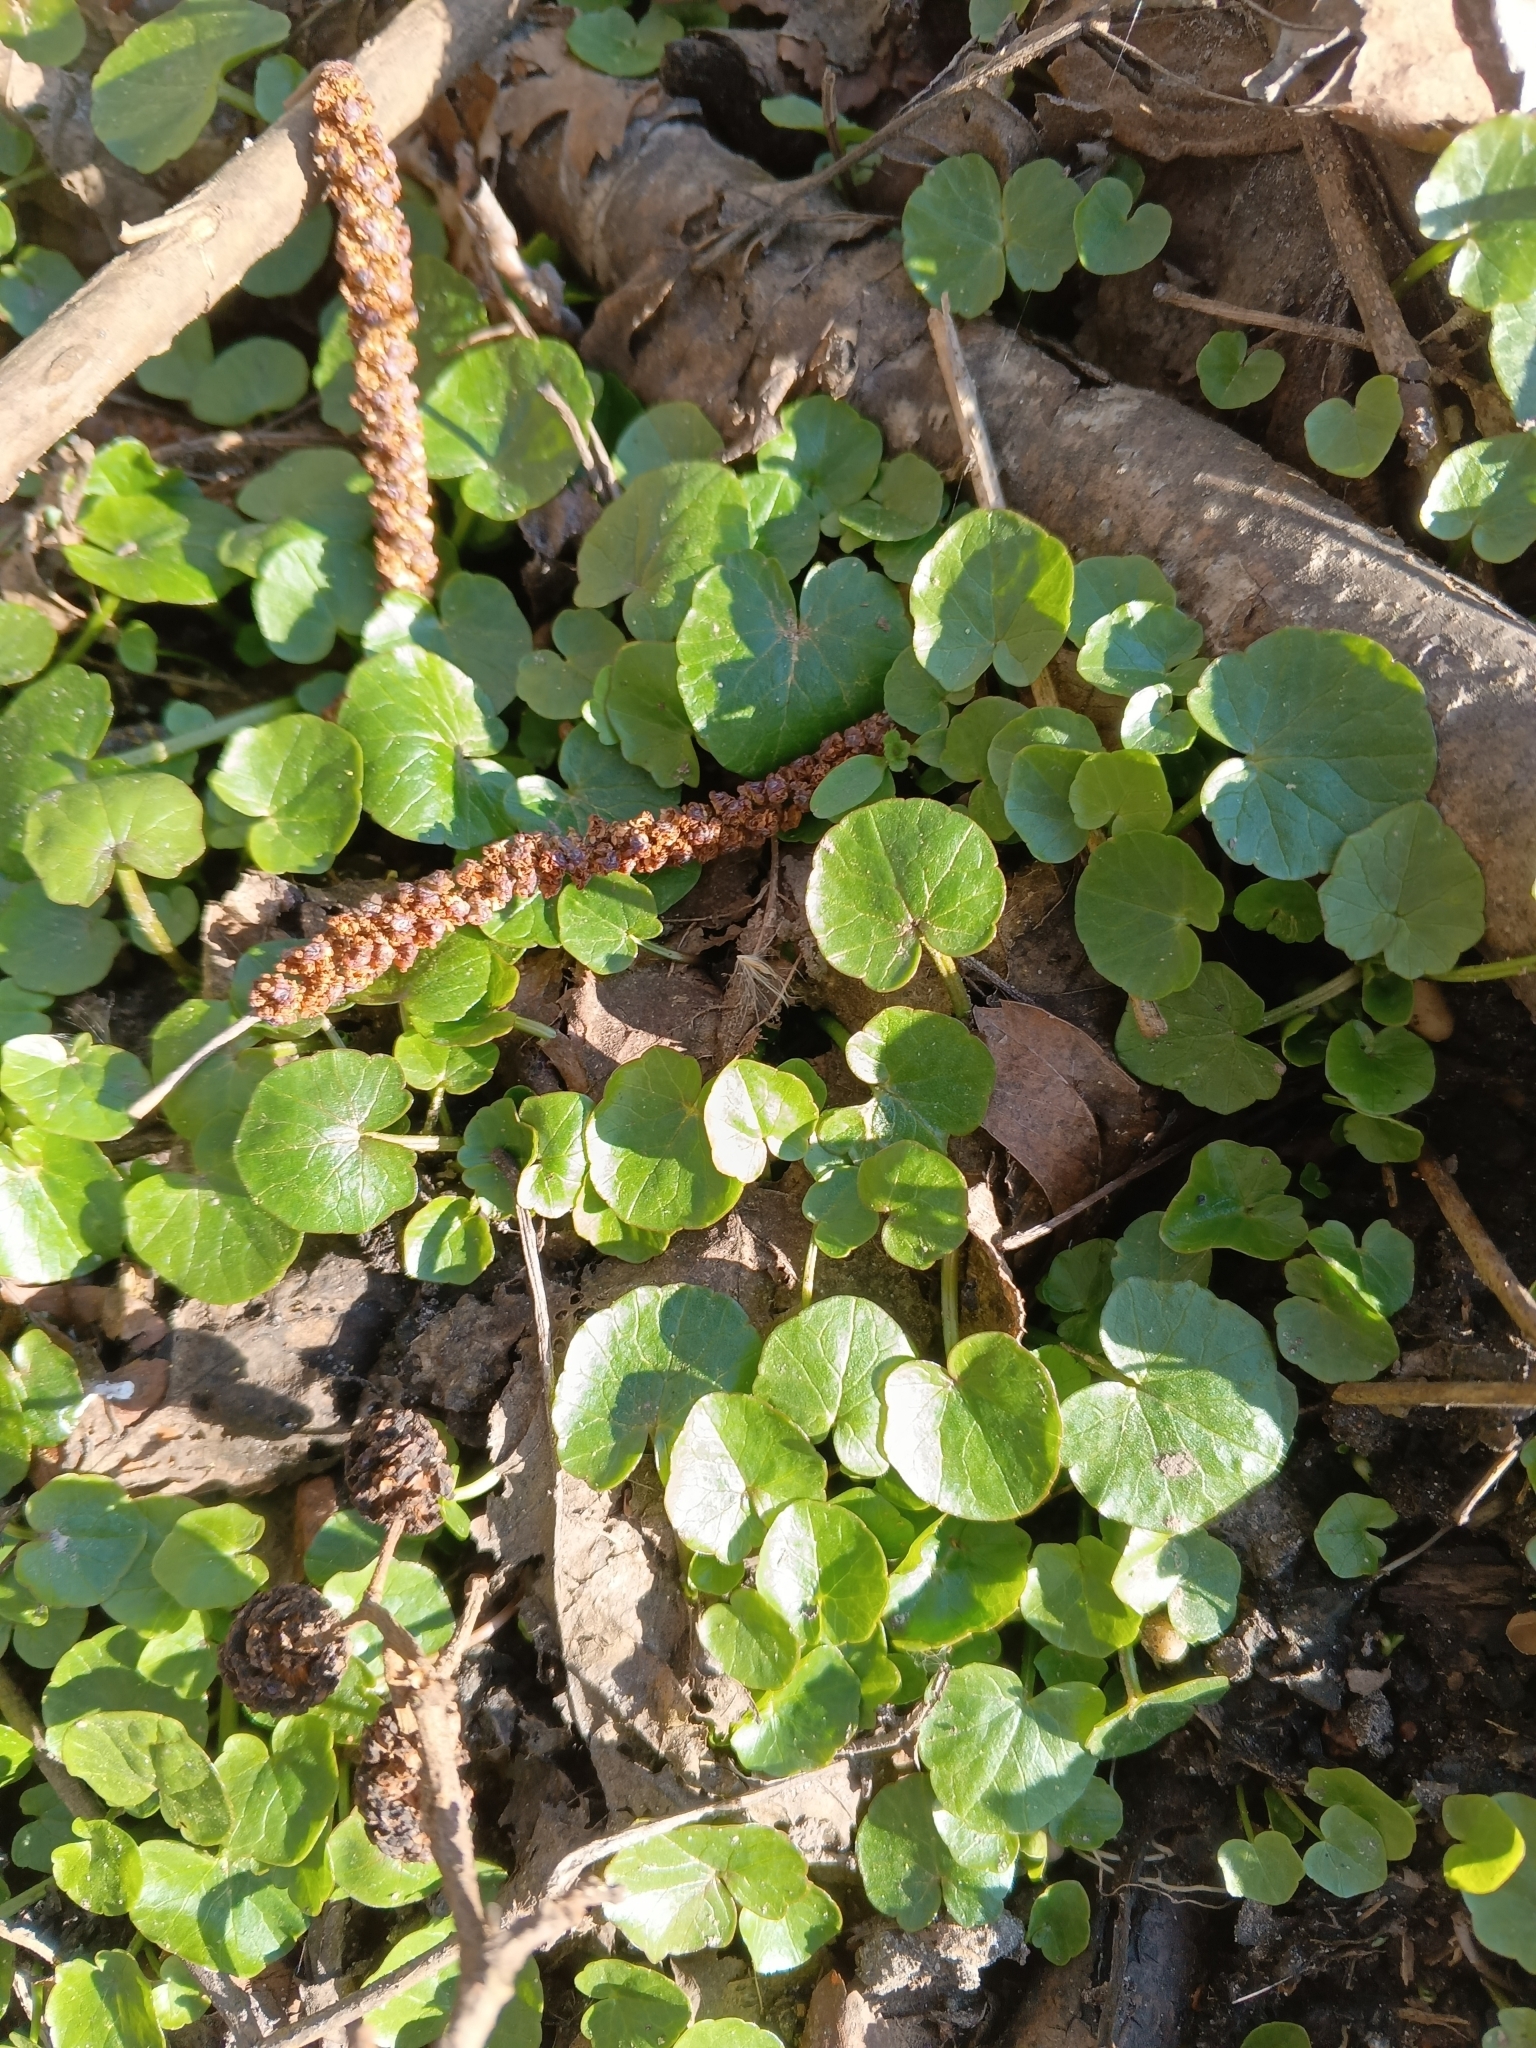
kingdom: Plantae
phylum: Tracheophyta
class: Magnoliopsida
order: Ranunculales
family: Ranunculaceae
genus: Ficaria
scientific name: Ficaria verna
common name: Lesser celandine
